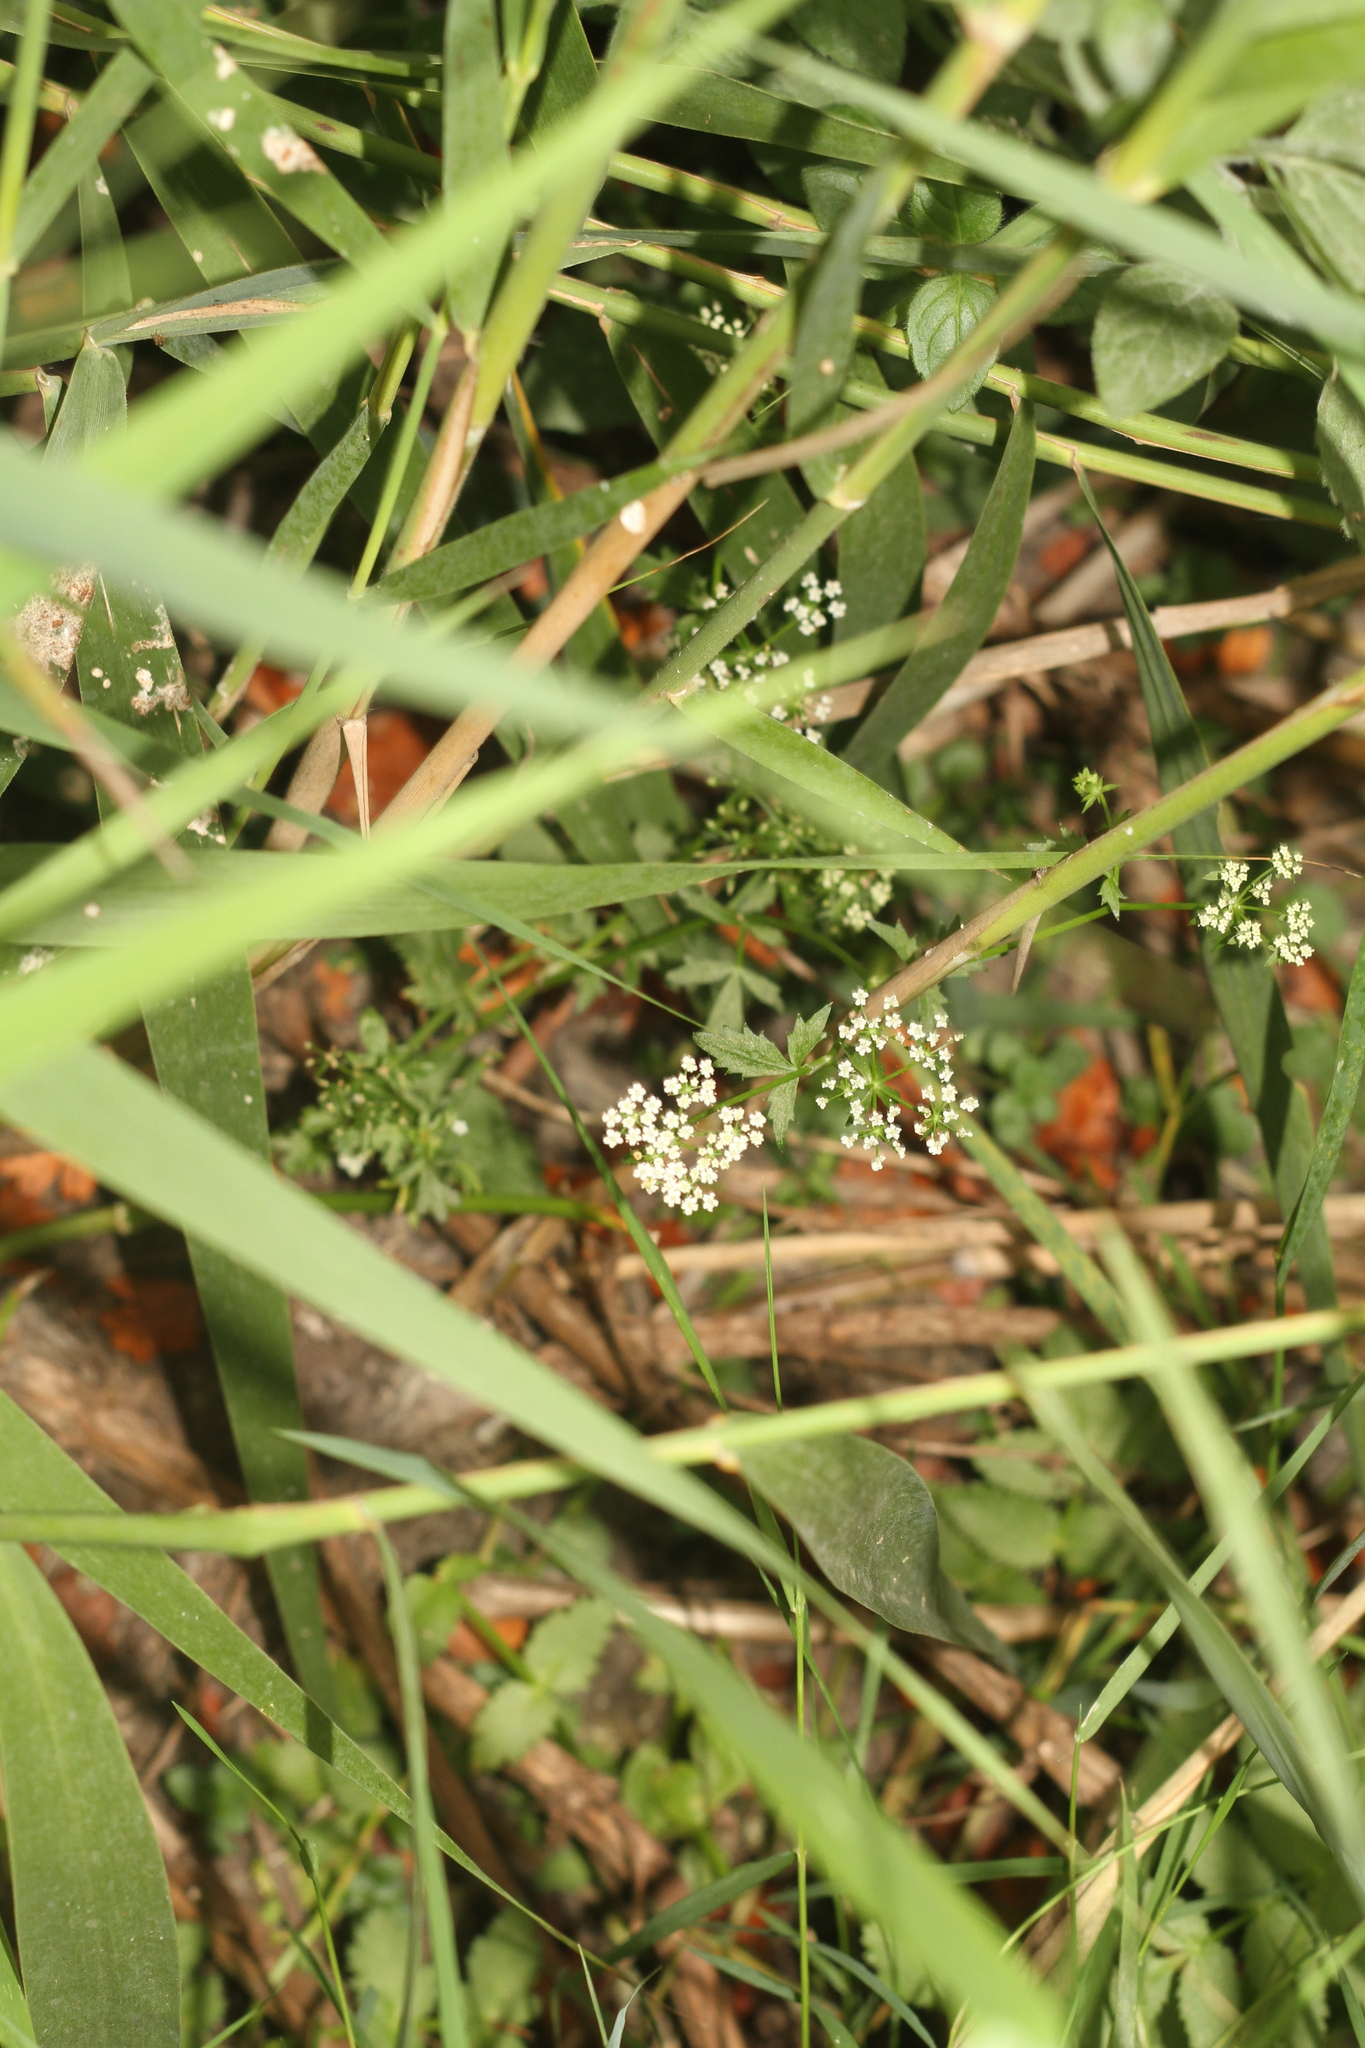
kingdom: Plantae
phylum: Tracheophyta
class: Magnoliopsida
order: Apiales
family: Apiaceae
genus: Apium
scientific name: Apium graveolens
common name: Wild celery
